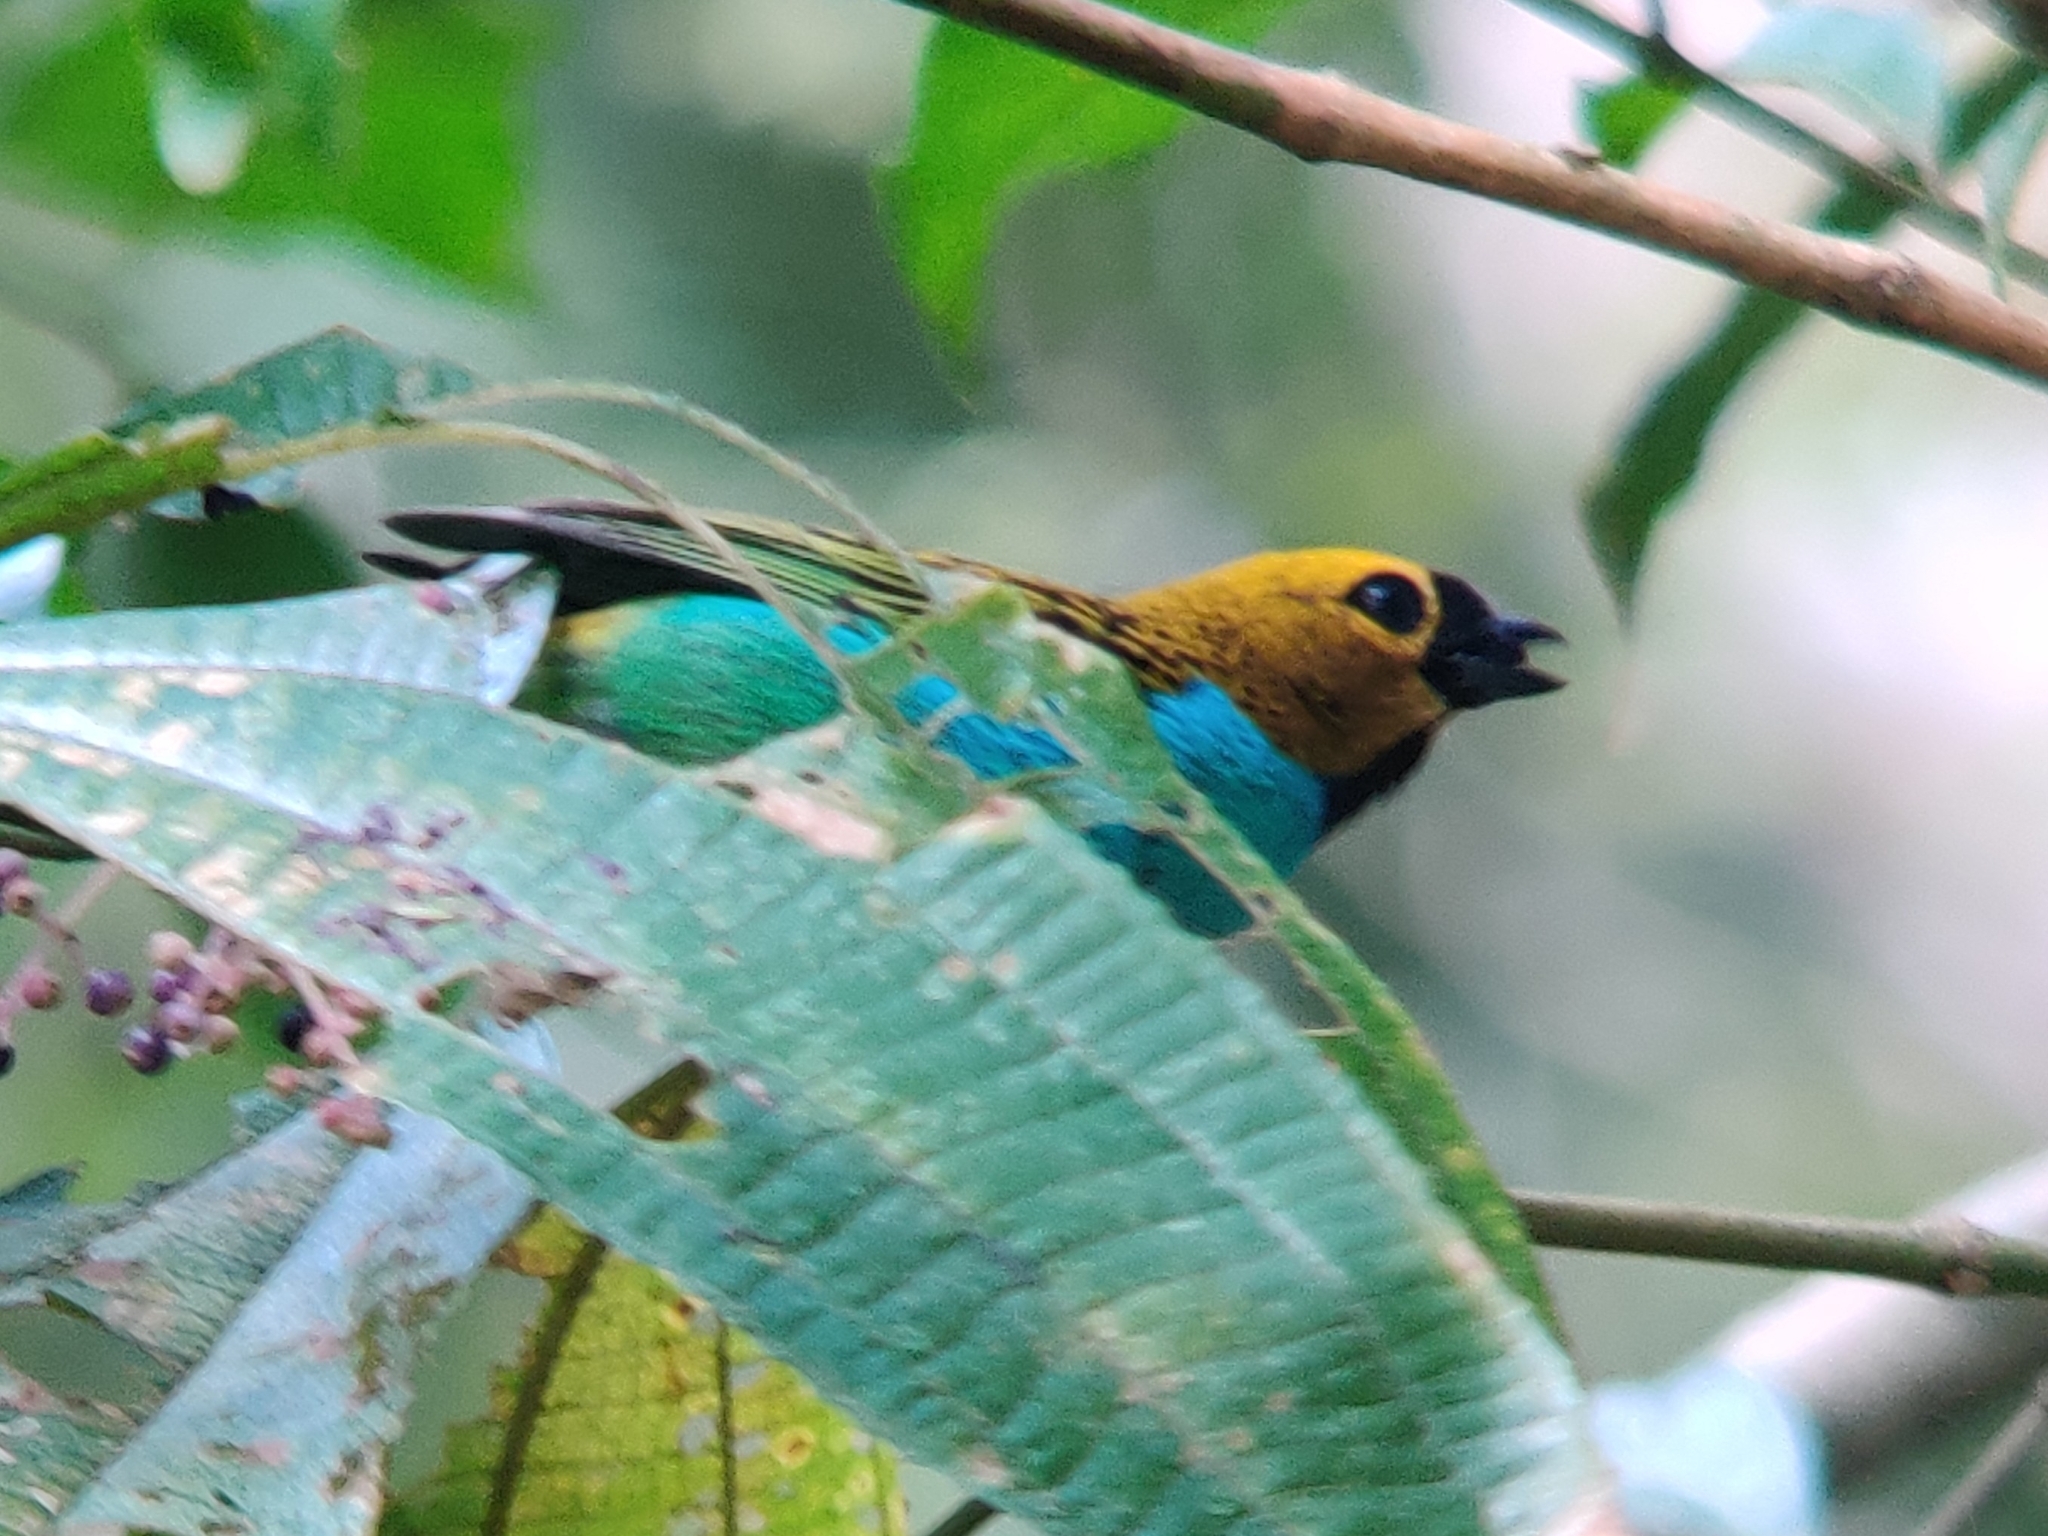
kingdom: Animalia
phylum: Chordata
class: Aves
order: Passeriformes
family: Thraupidae
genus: Tangara
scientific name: Tangara cyanoventris
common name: Gilt-edged tanager
